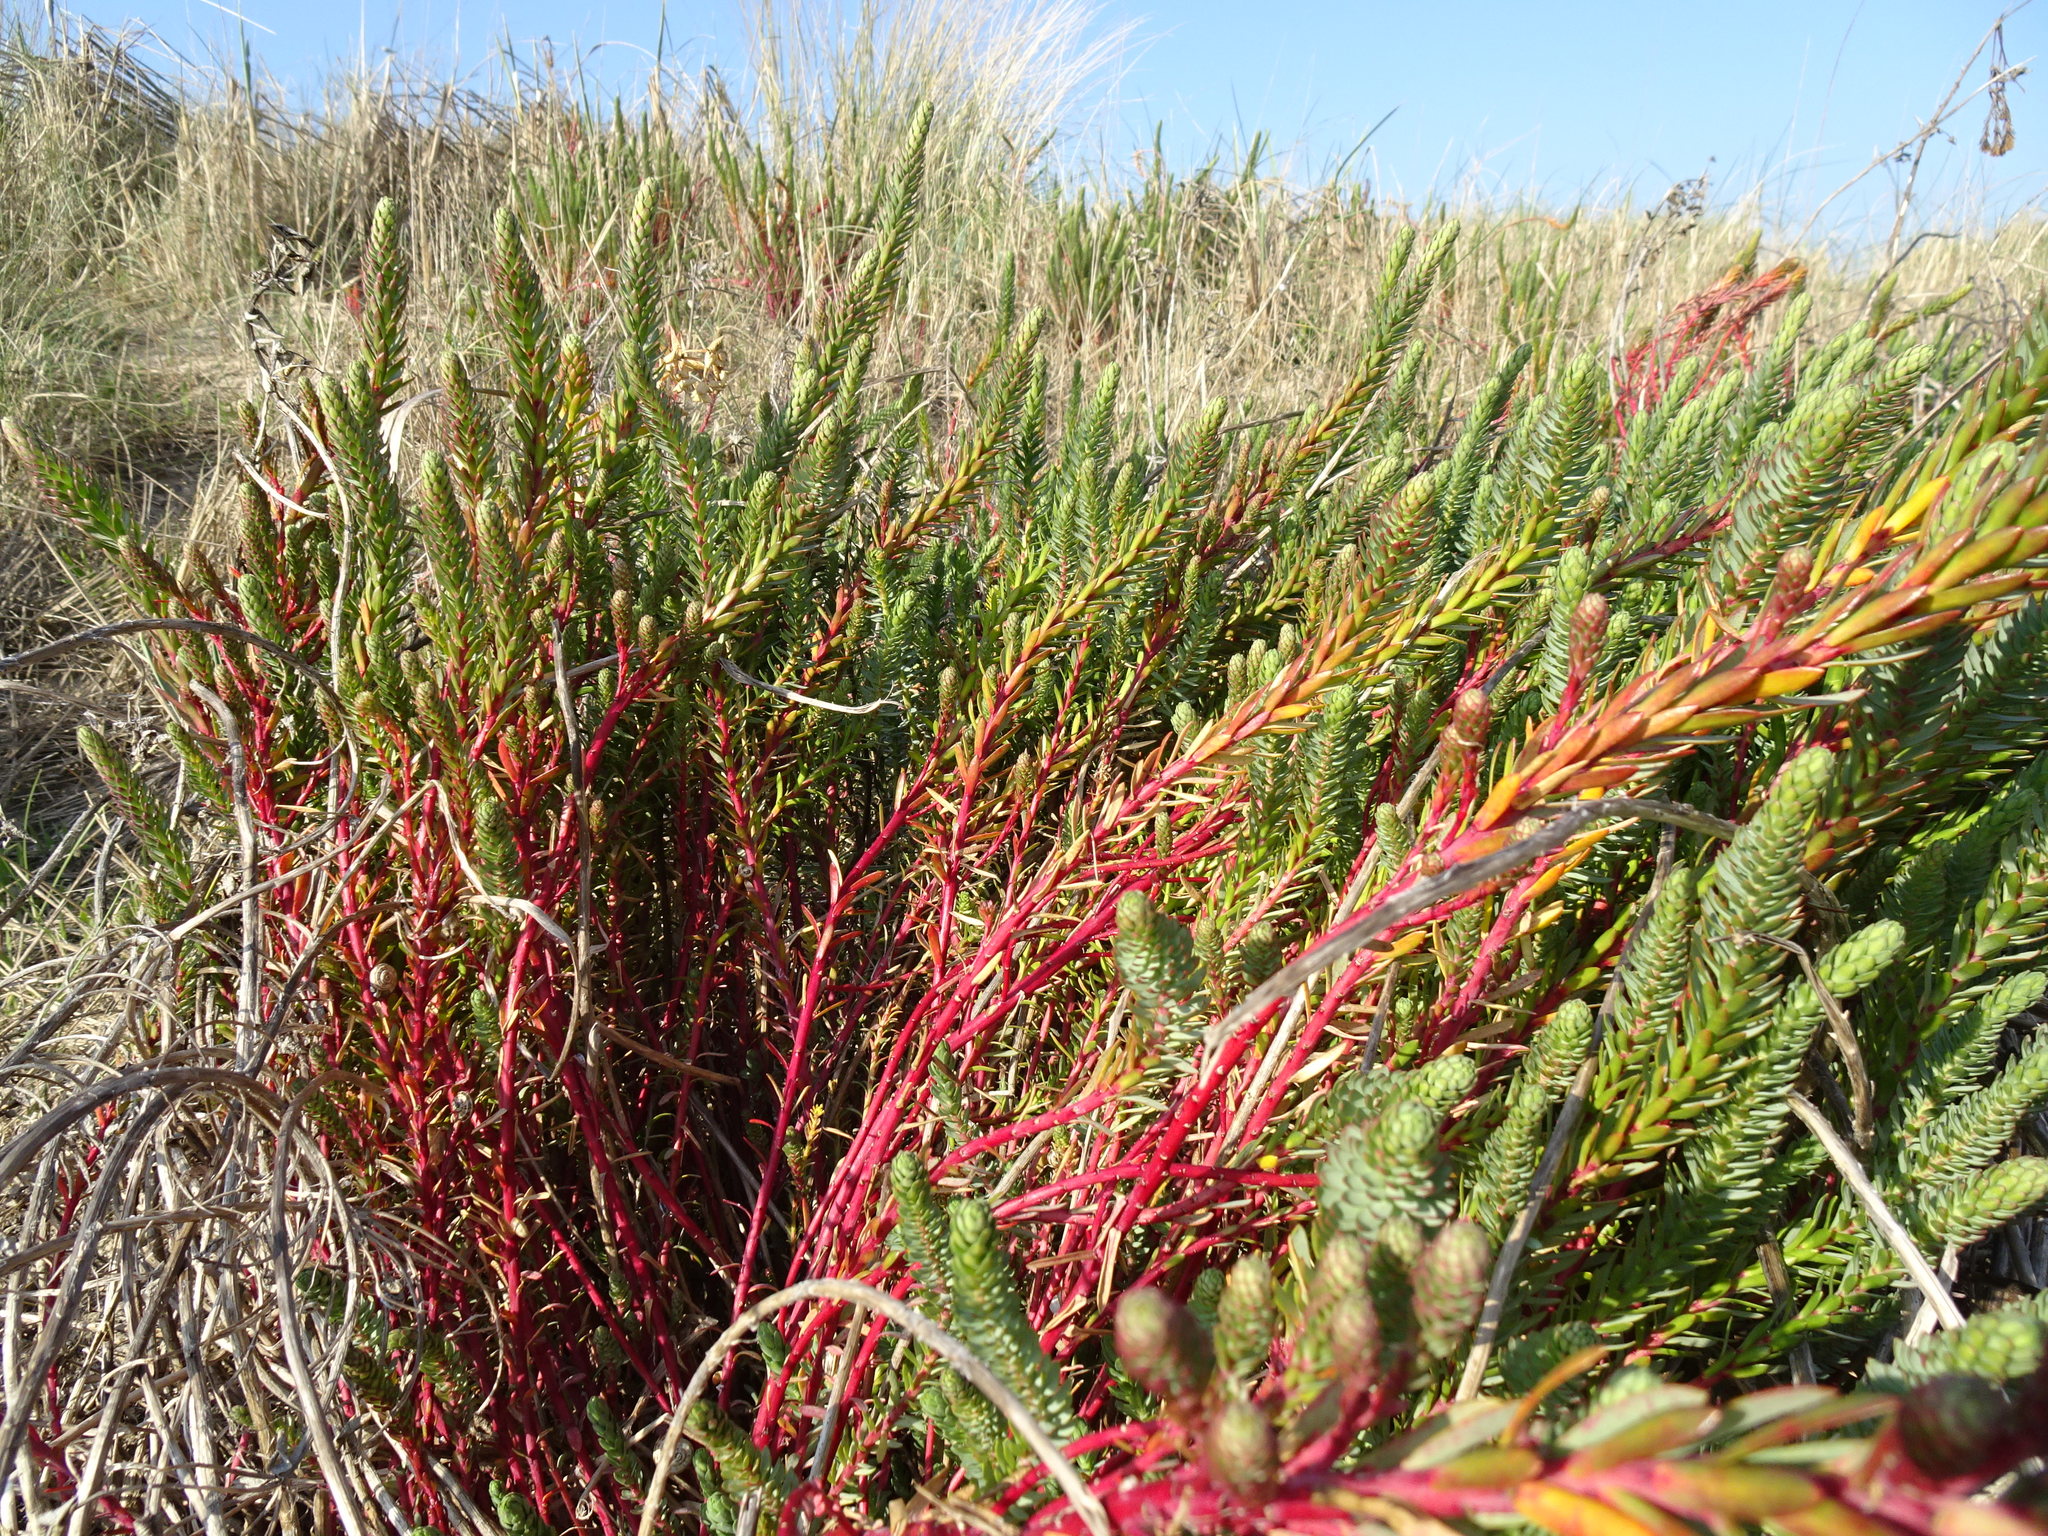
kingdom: Plantae
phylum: Tracheophyta
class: Magnoliopsida
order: Malpighiales
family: Euphorbiaceae
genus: Euphorbia
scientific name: Euphorbia paralias
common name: Sea spurge
